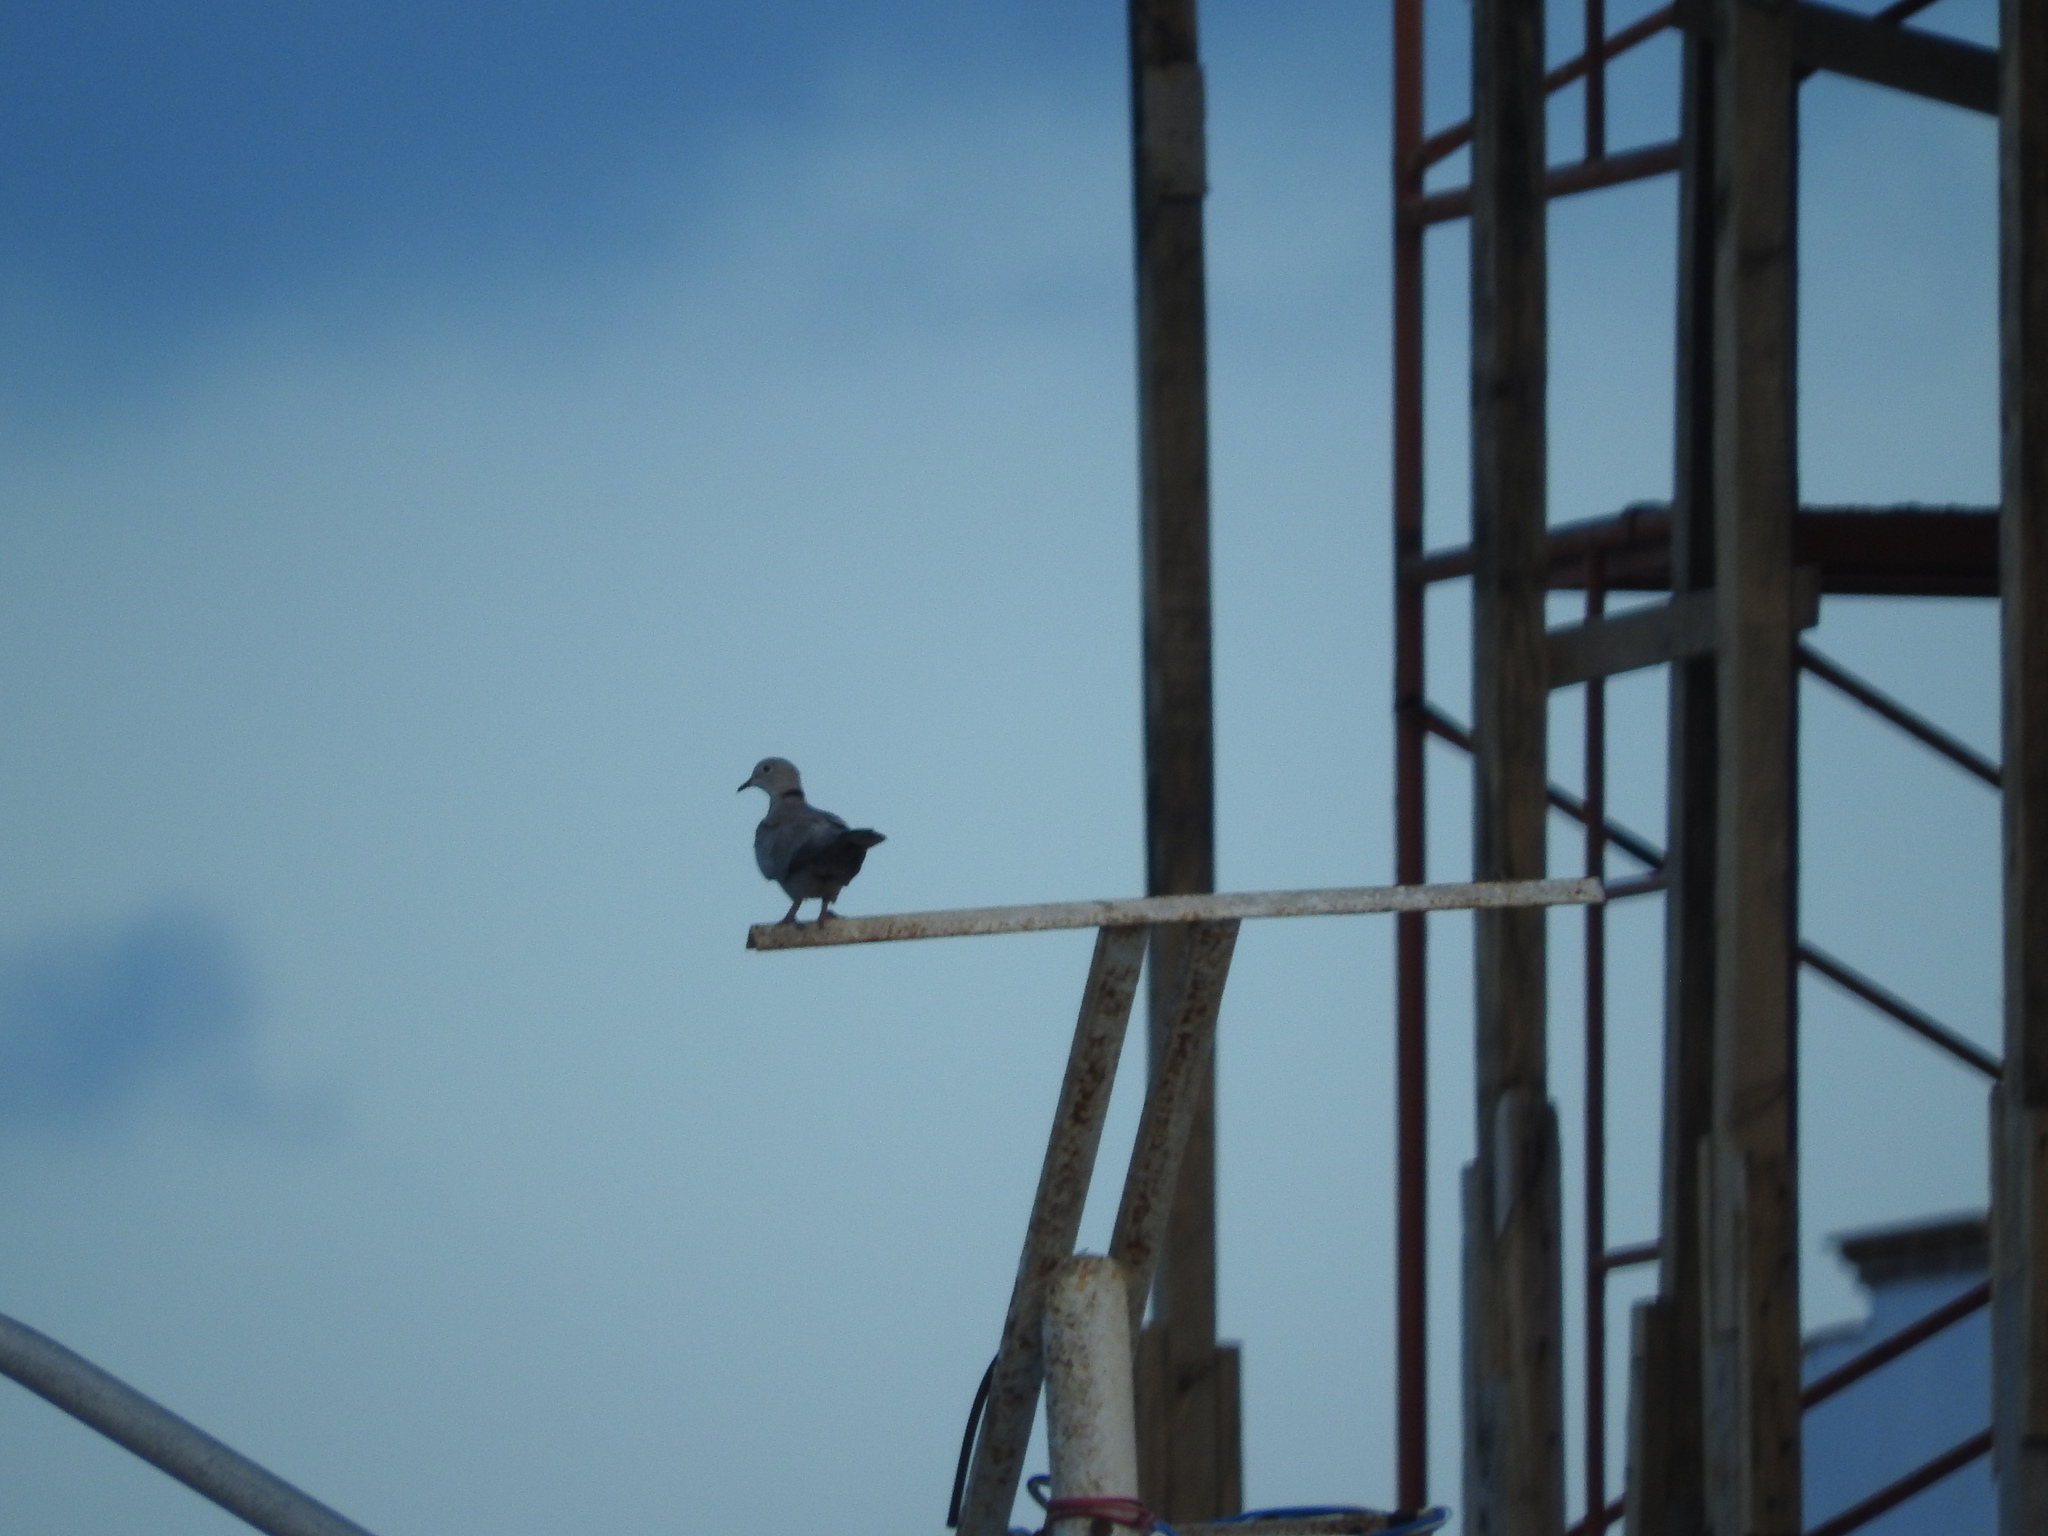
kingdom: Animalia
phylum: Chordata
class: Aves
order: Columbiformes
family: Columbidae
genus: Streptopelia
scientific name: Streptopelia decaocto
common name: Eurasian collared dove
